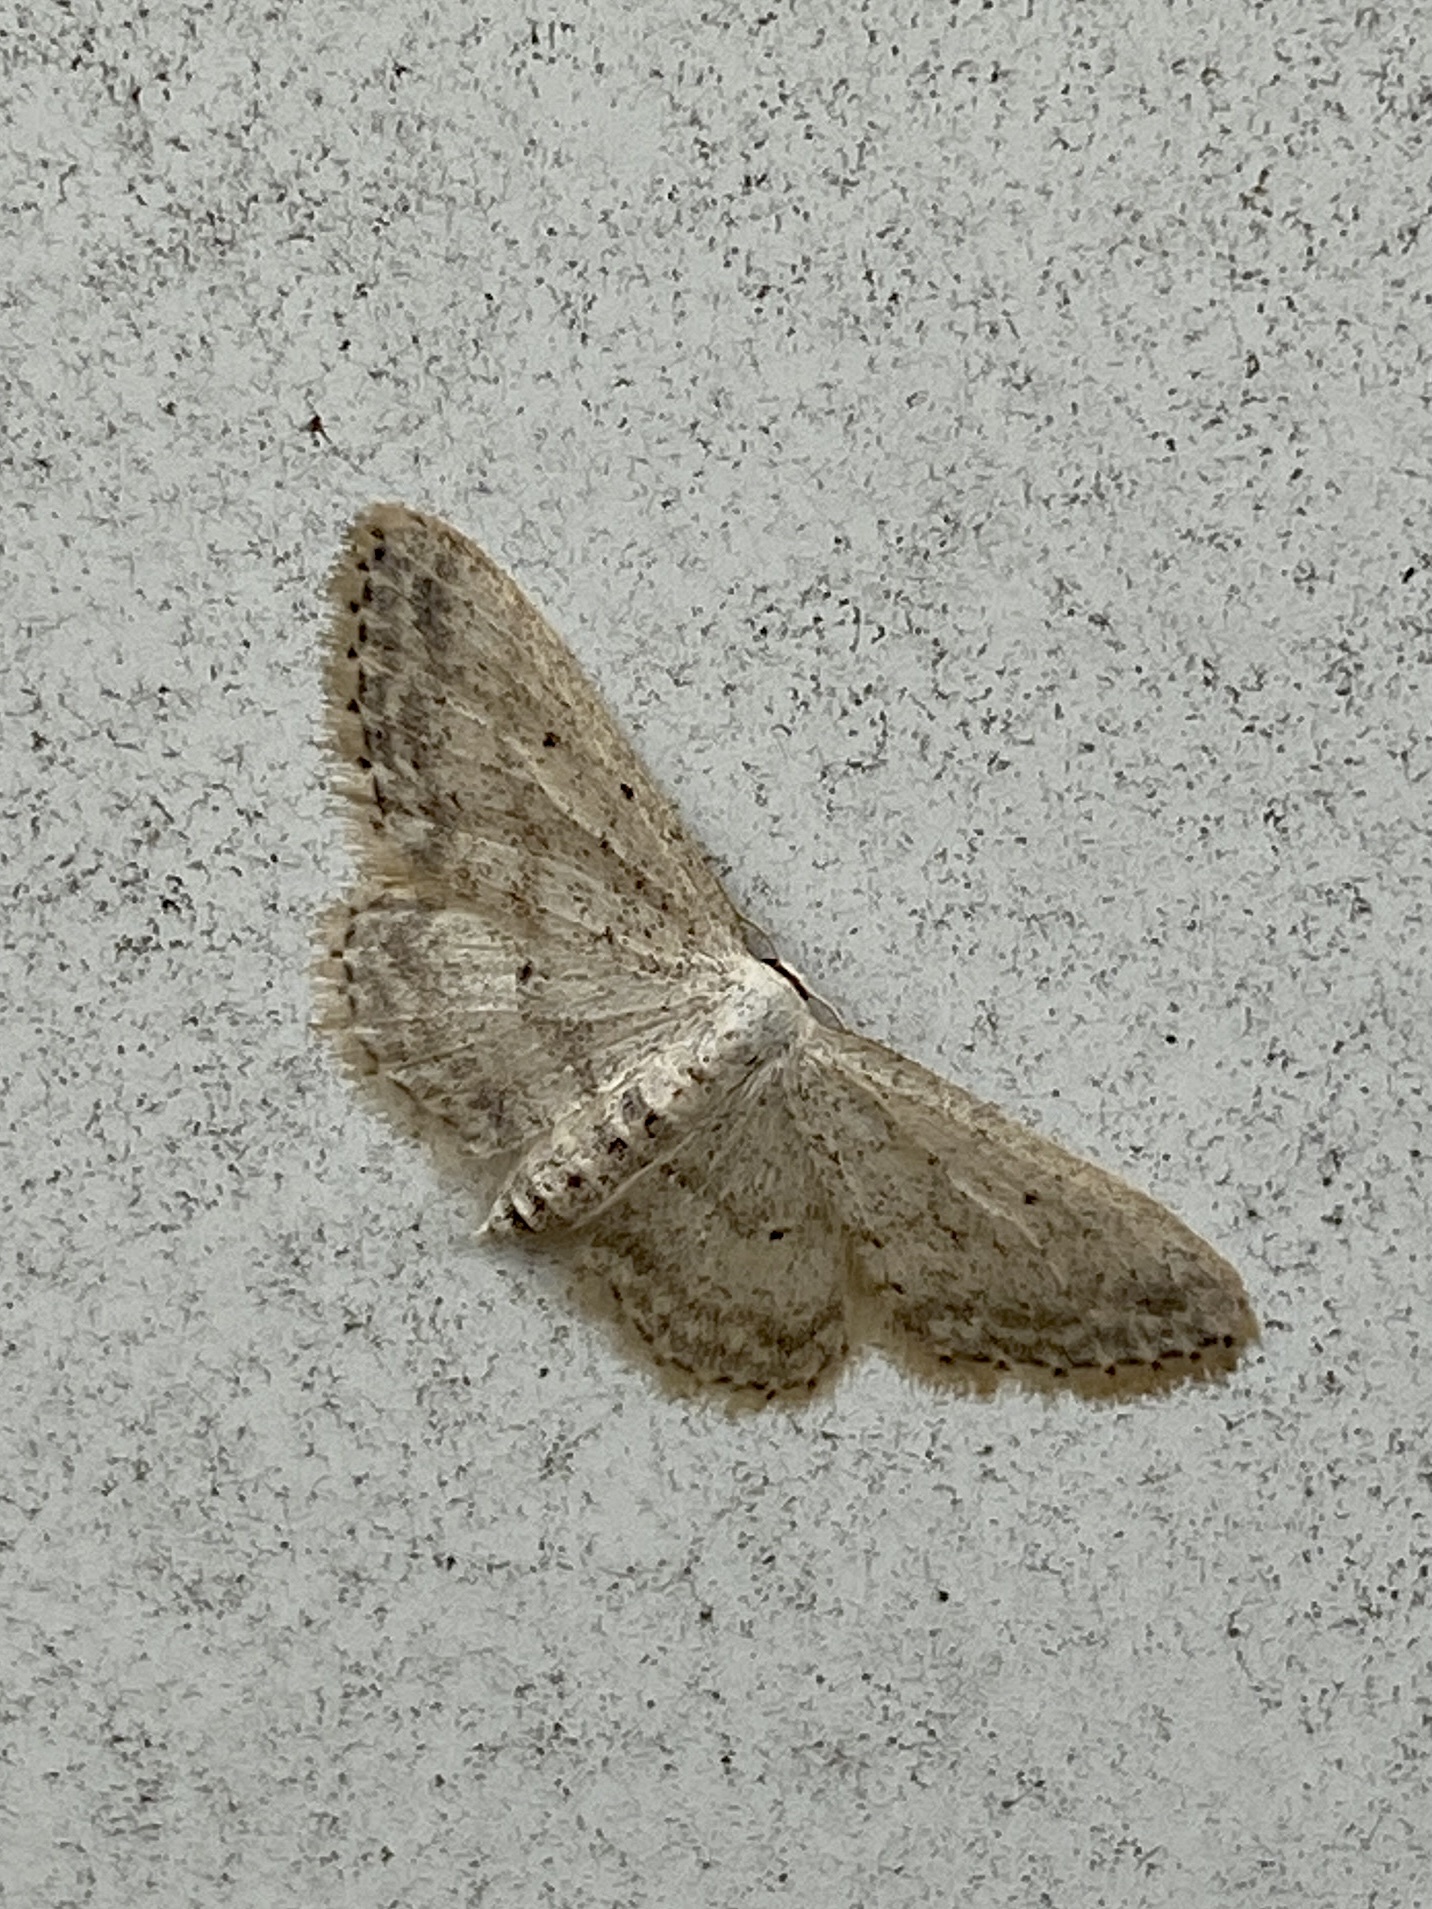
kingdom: Animalia
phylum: Arthropoda
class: Insecta
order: Lepidoptera
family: Geometridae
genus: Idaea
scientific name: Idaea seriata
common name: Small dusty wave
